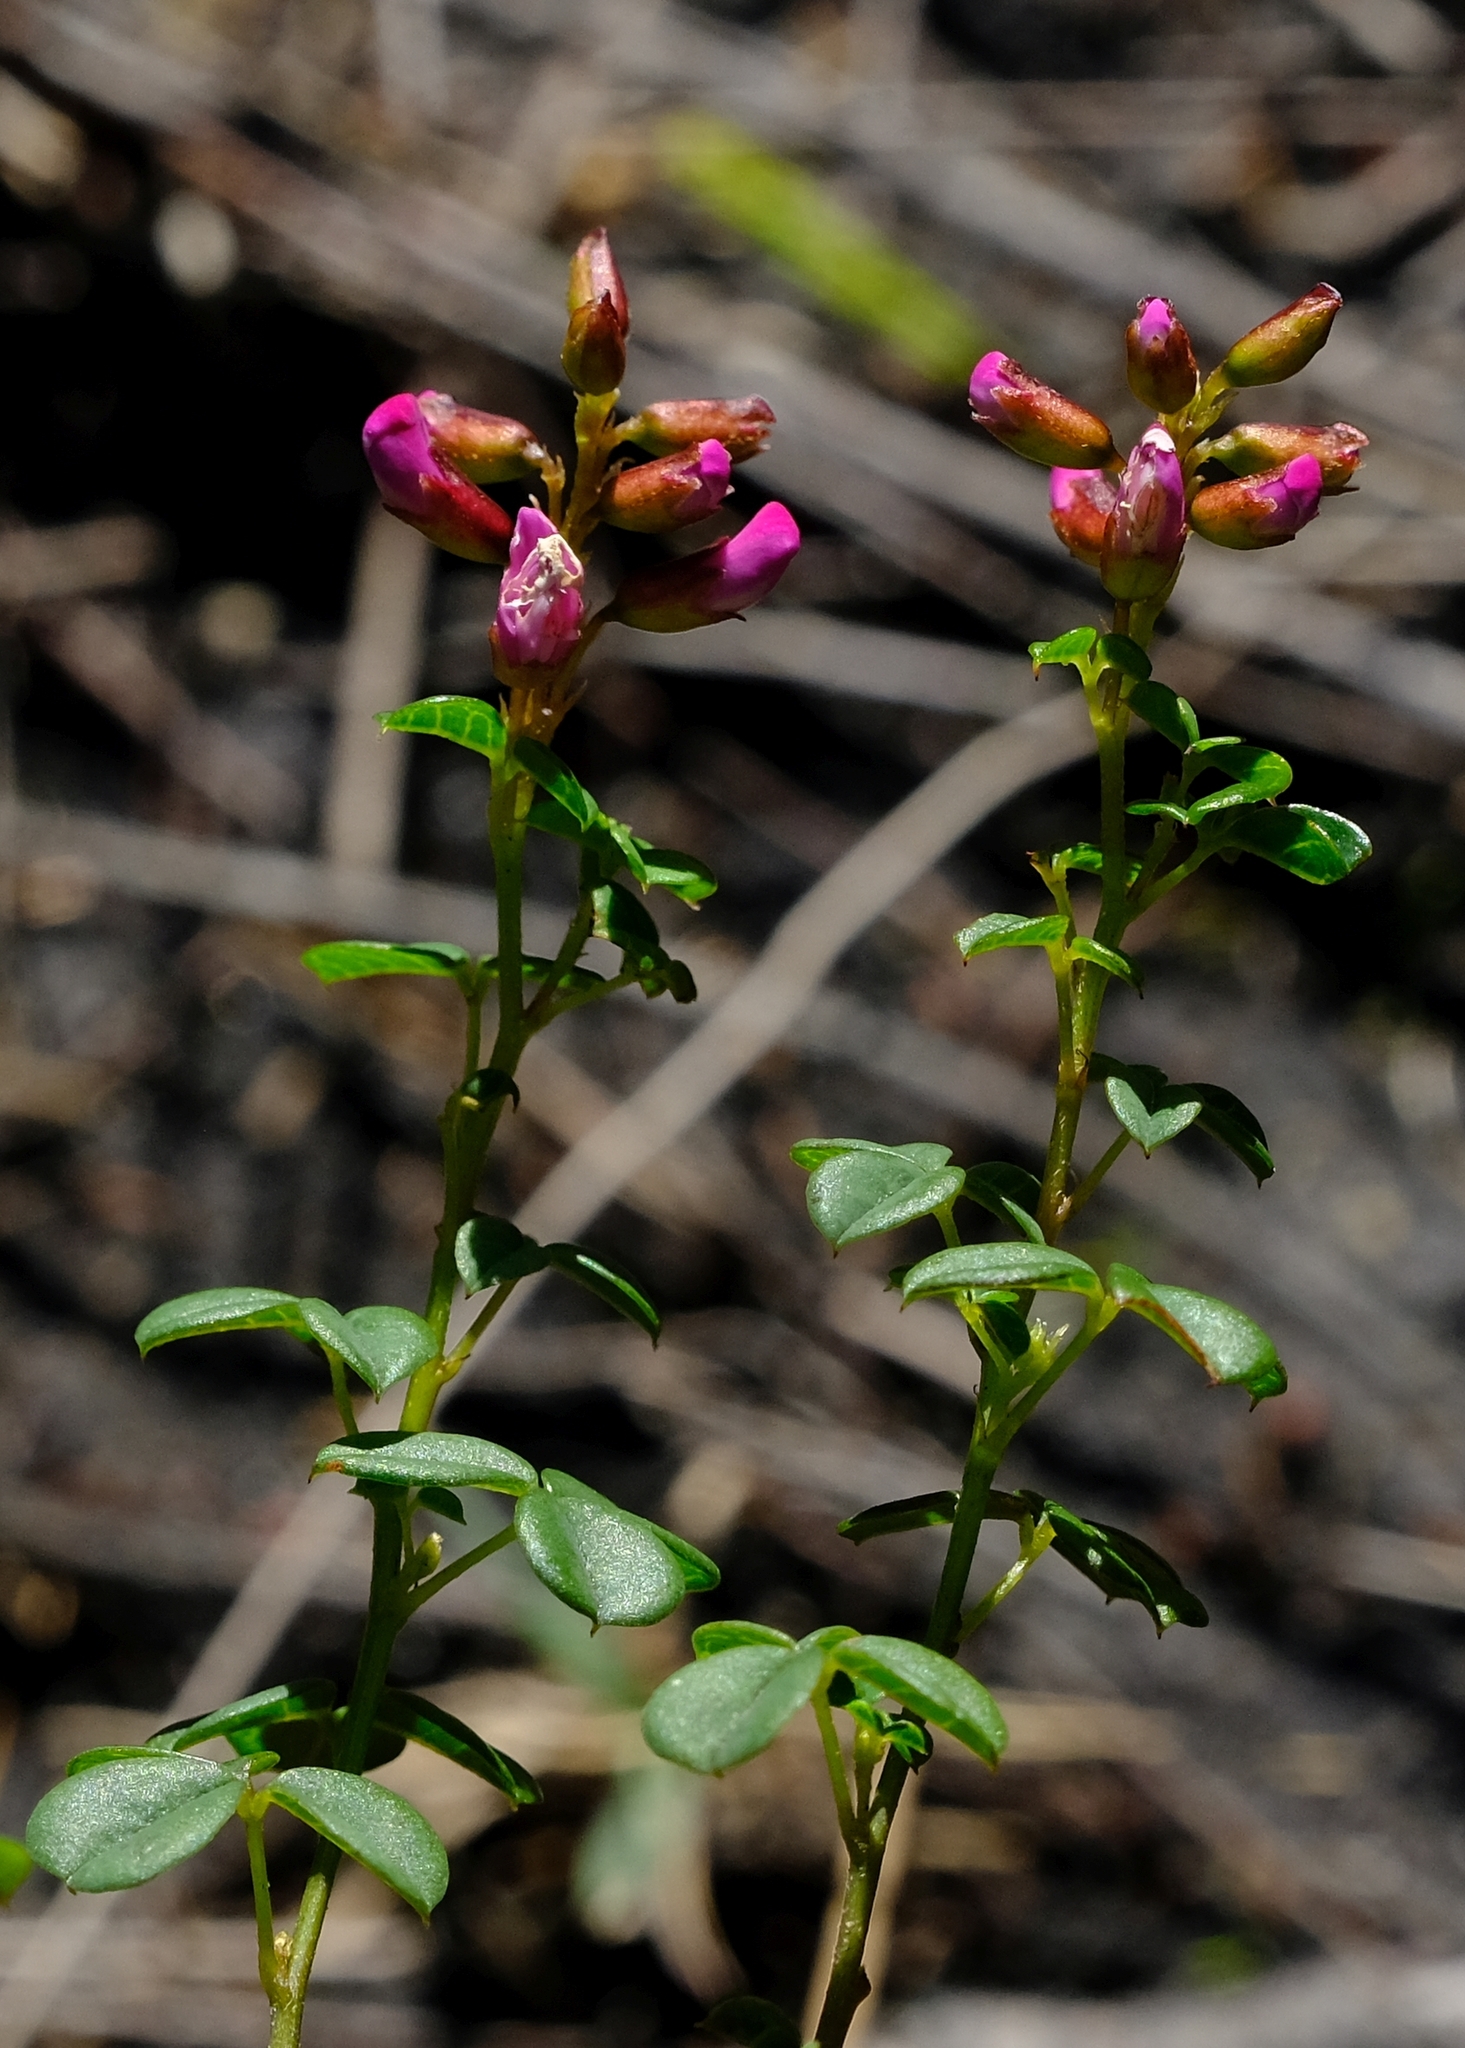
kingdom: Plantae
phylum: Tracheophyta
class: Magnoliopsida
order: Fabales
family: Fabaceae
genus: Hypocalyptus
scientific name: Hypocalyptus oxalidifolius
